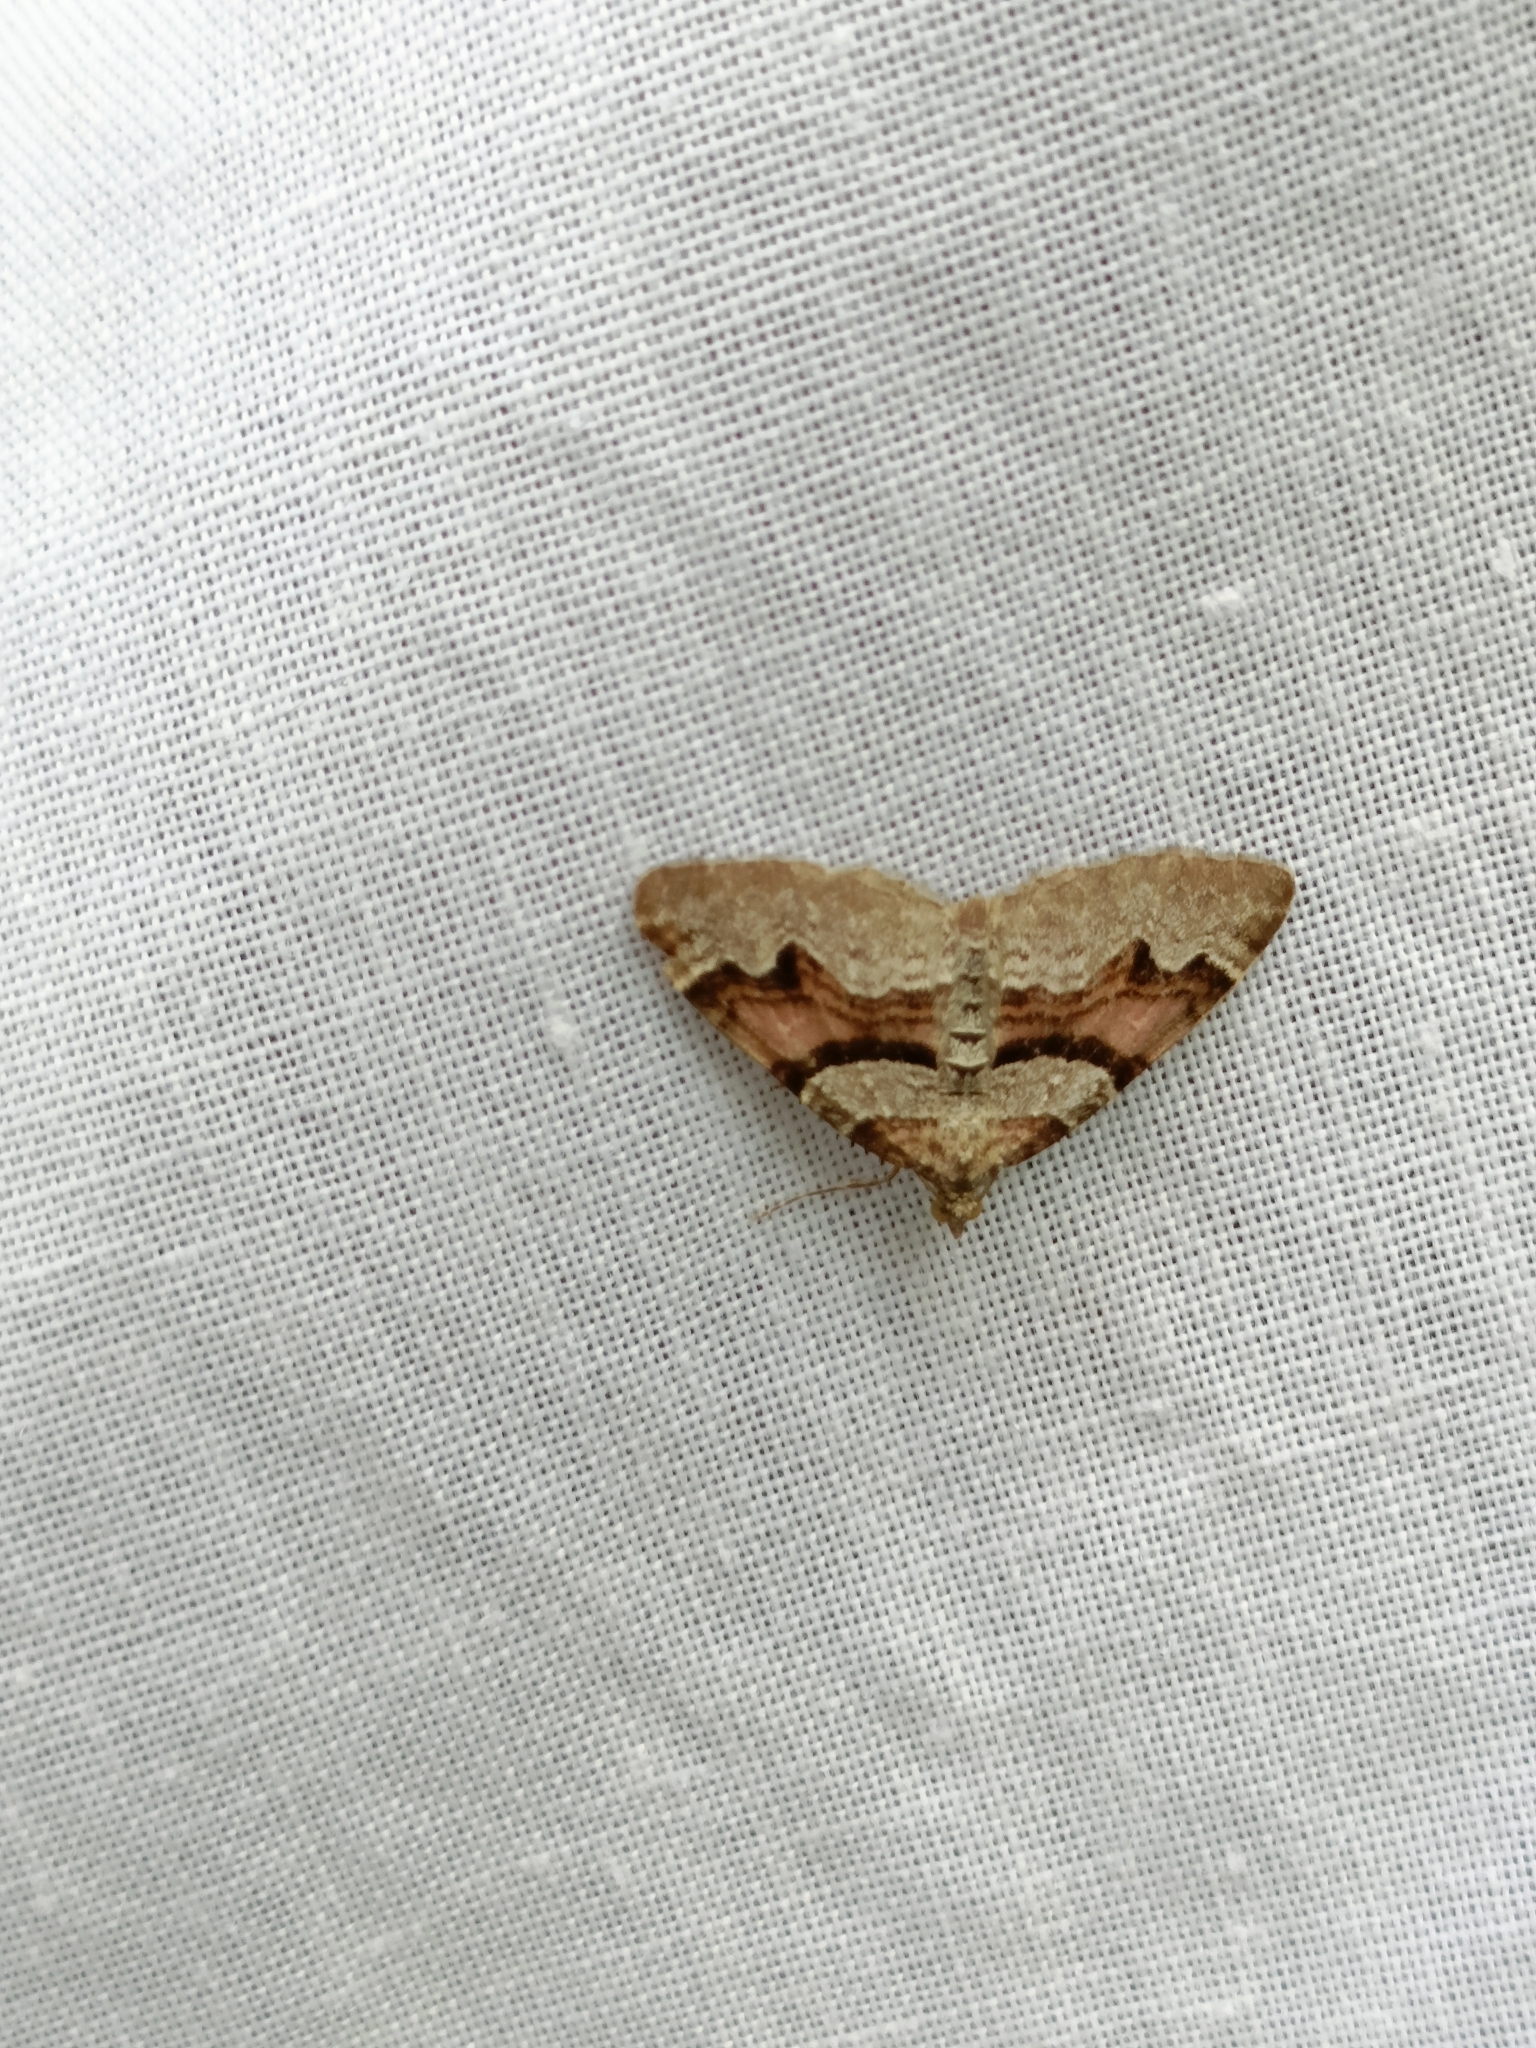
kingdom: Animalia
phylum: Arthropoda
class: Insecta
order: Lepidoptera
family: Geometridae
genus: Xanthorhoe
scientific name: Xanthorhoe designata
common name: Flame carpet
